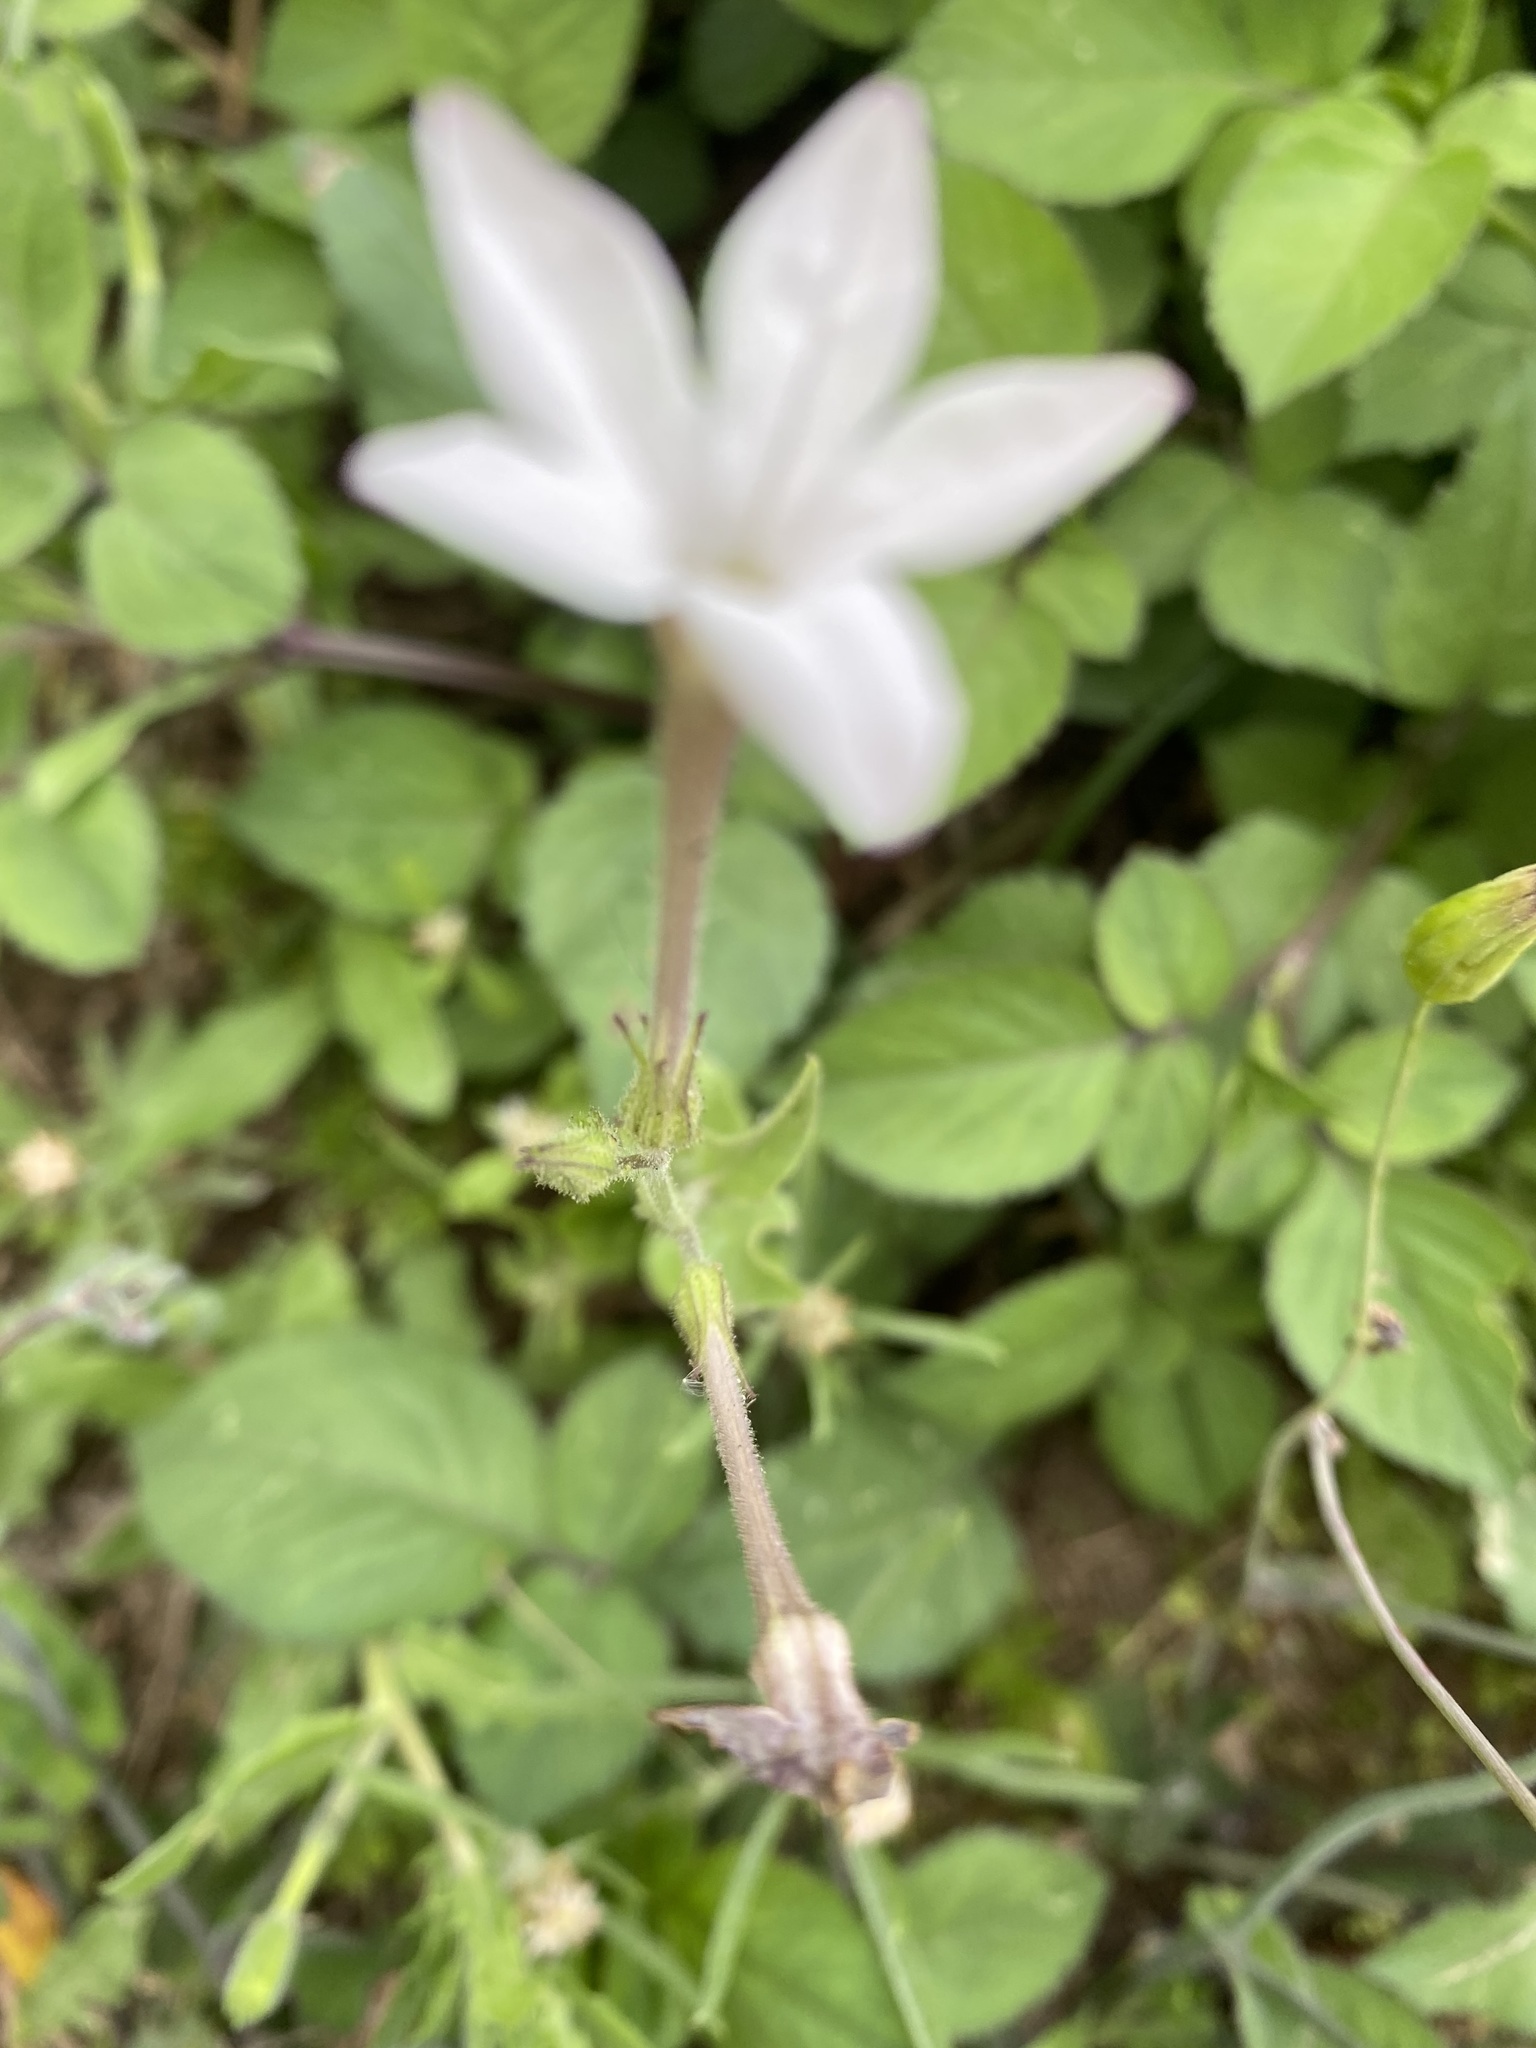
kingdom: Plantae
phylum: Tracheophyta
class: Magnoliopsida
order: Solanales
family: Solanaceae
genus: Nicotiana
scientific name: Nicotiana plumbaginifolia
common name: Tex-mex tobacco
